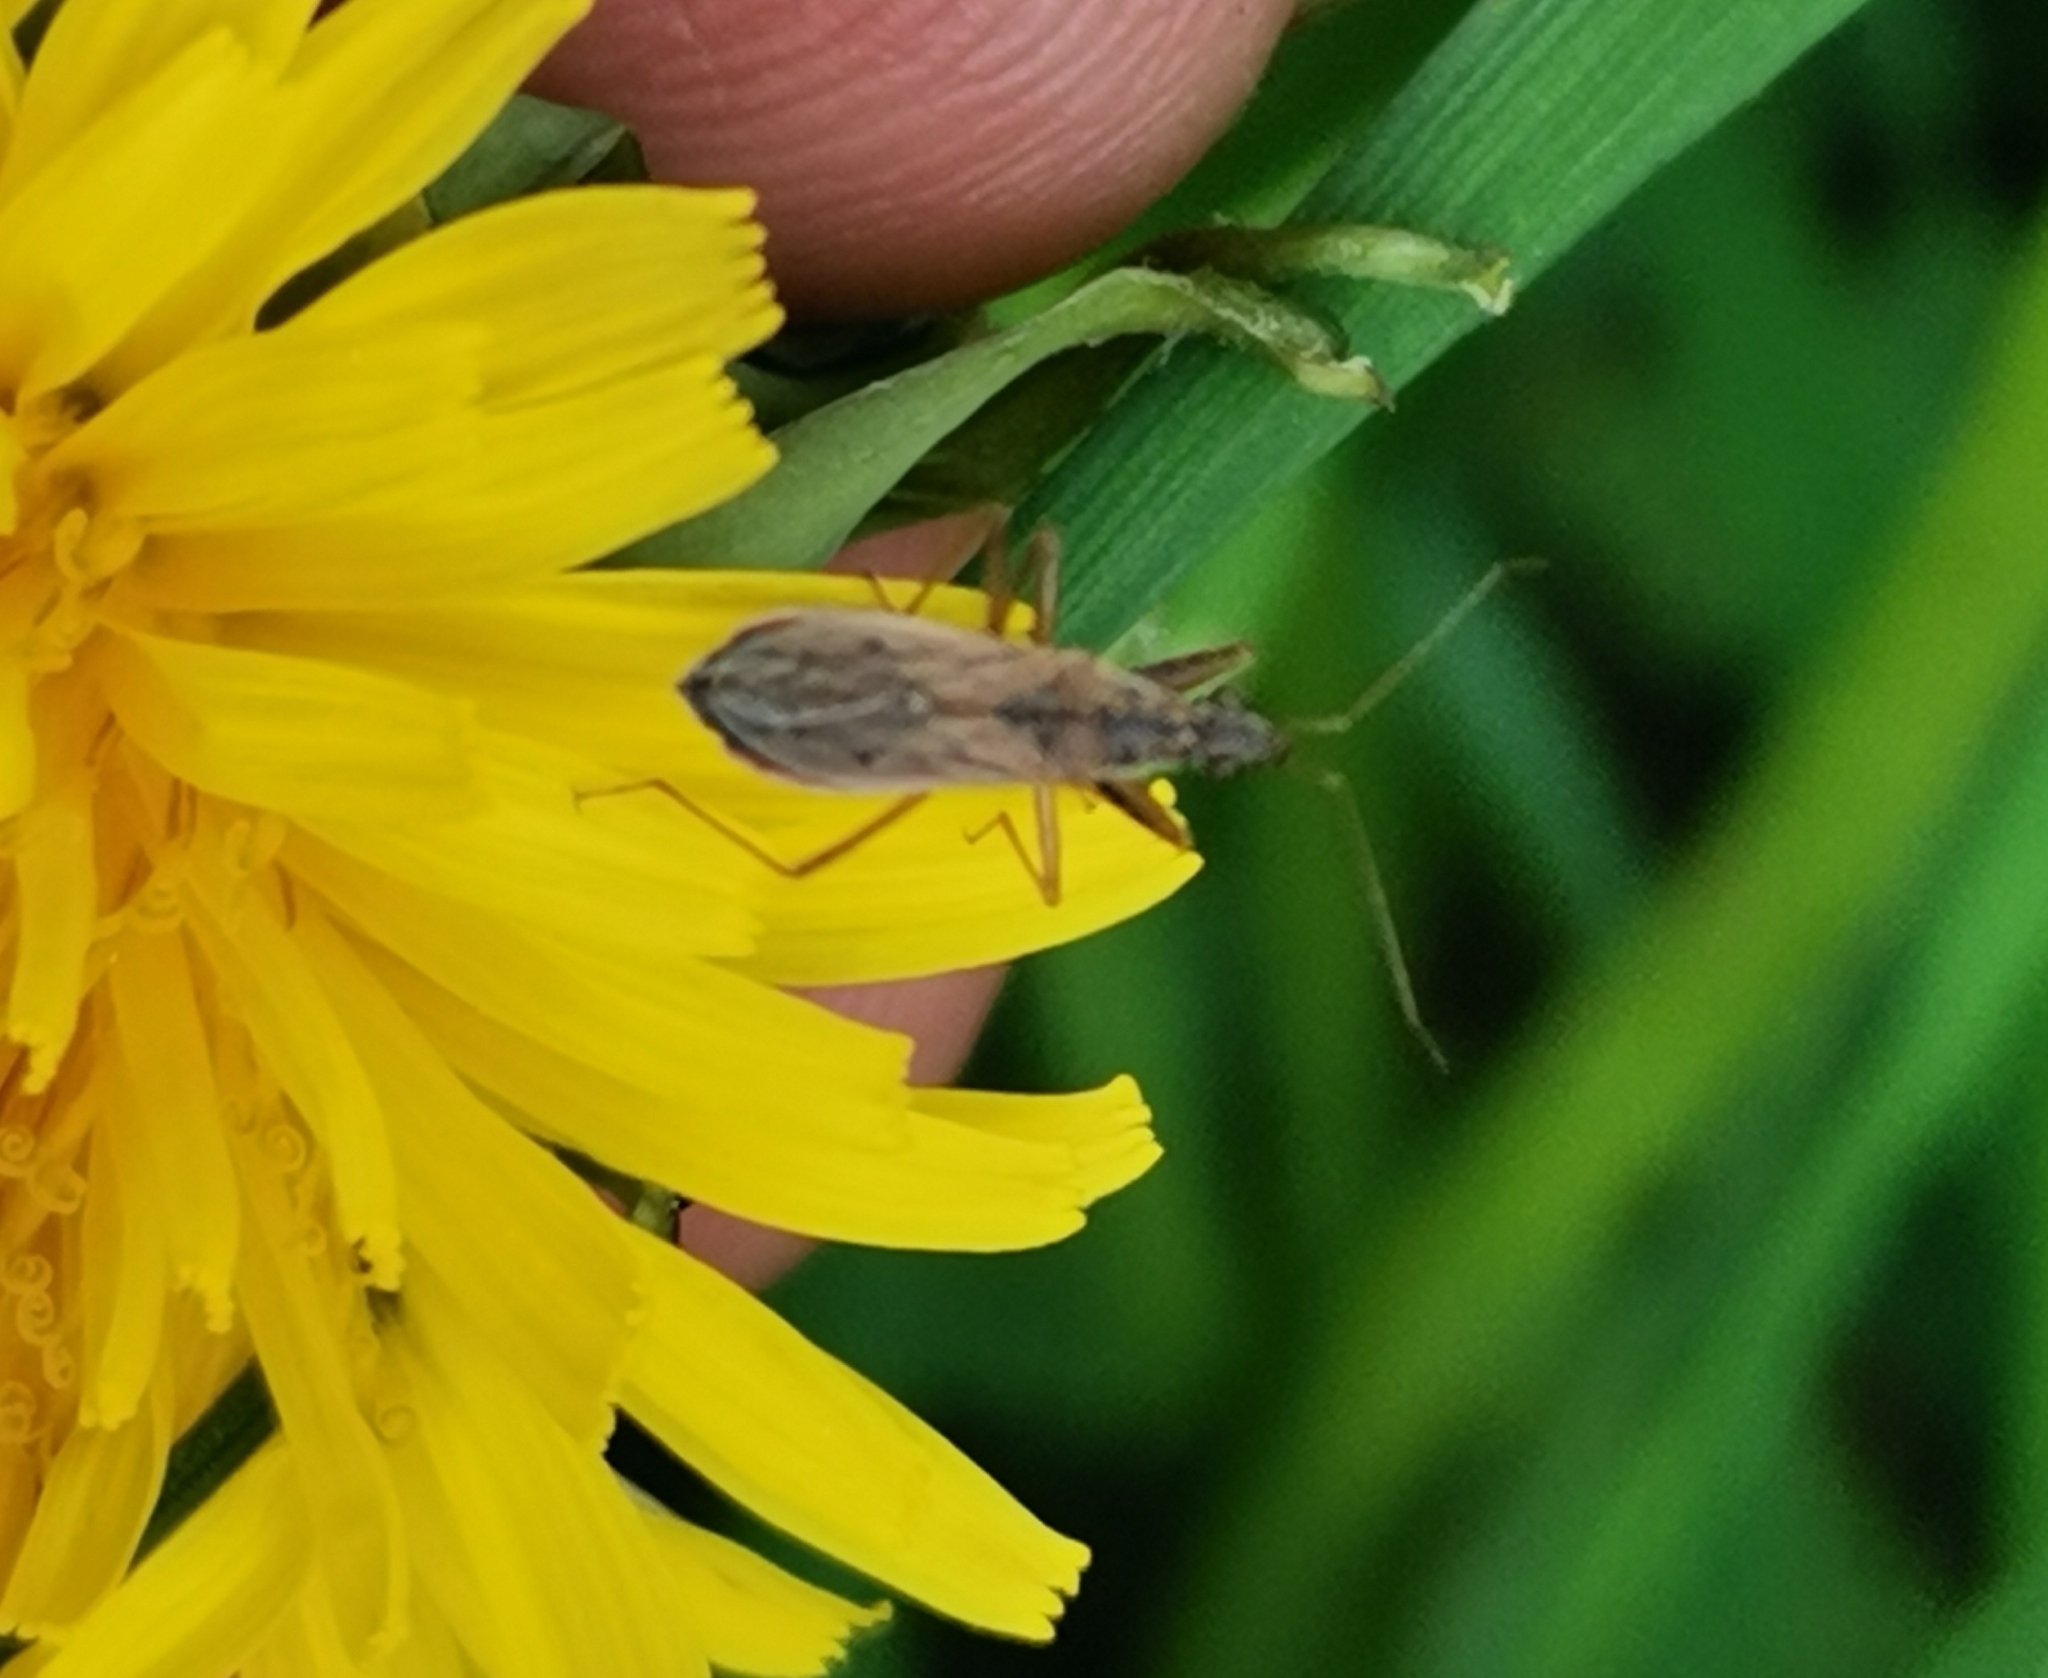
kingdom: Animalia
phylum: Arthropoda
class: Insecta
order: Hemiptera
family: Nabidae
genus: Nabis
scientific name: Nabis brevis
